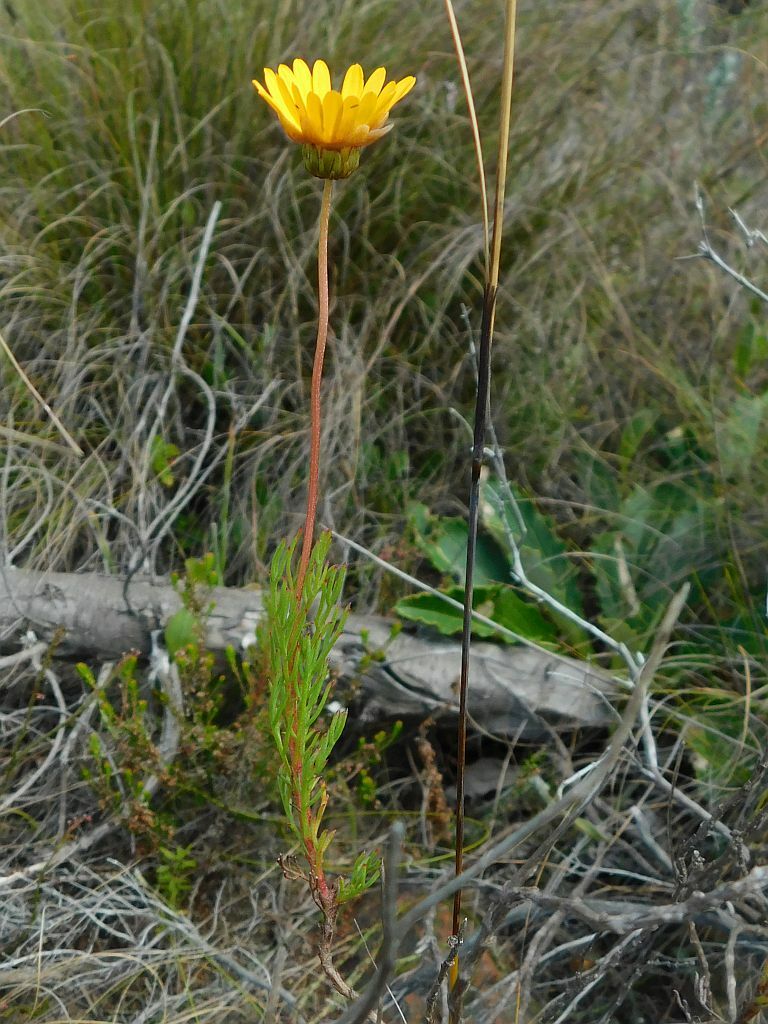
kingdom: Plantae
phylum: Tracheophyta
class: Magnoliopsida
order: Asterales
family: Asteraceae
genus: Ursinia
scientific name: Ursinia paleacea
